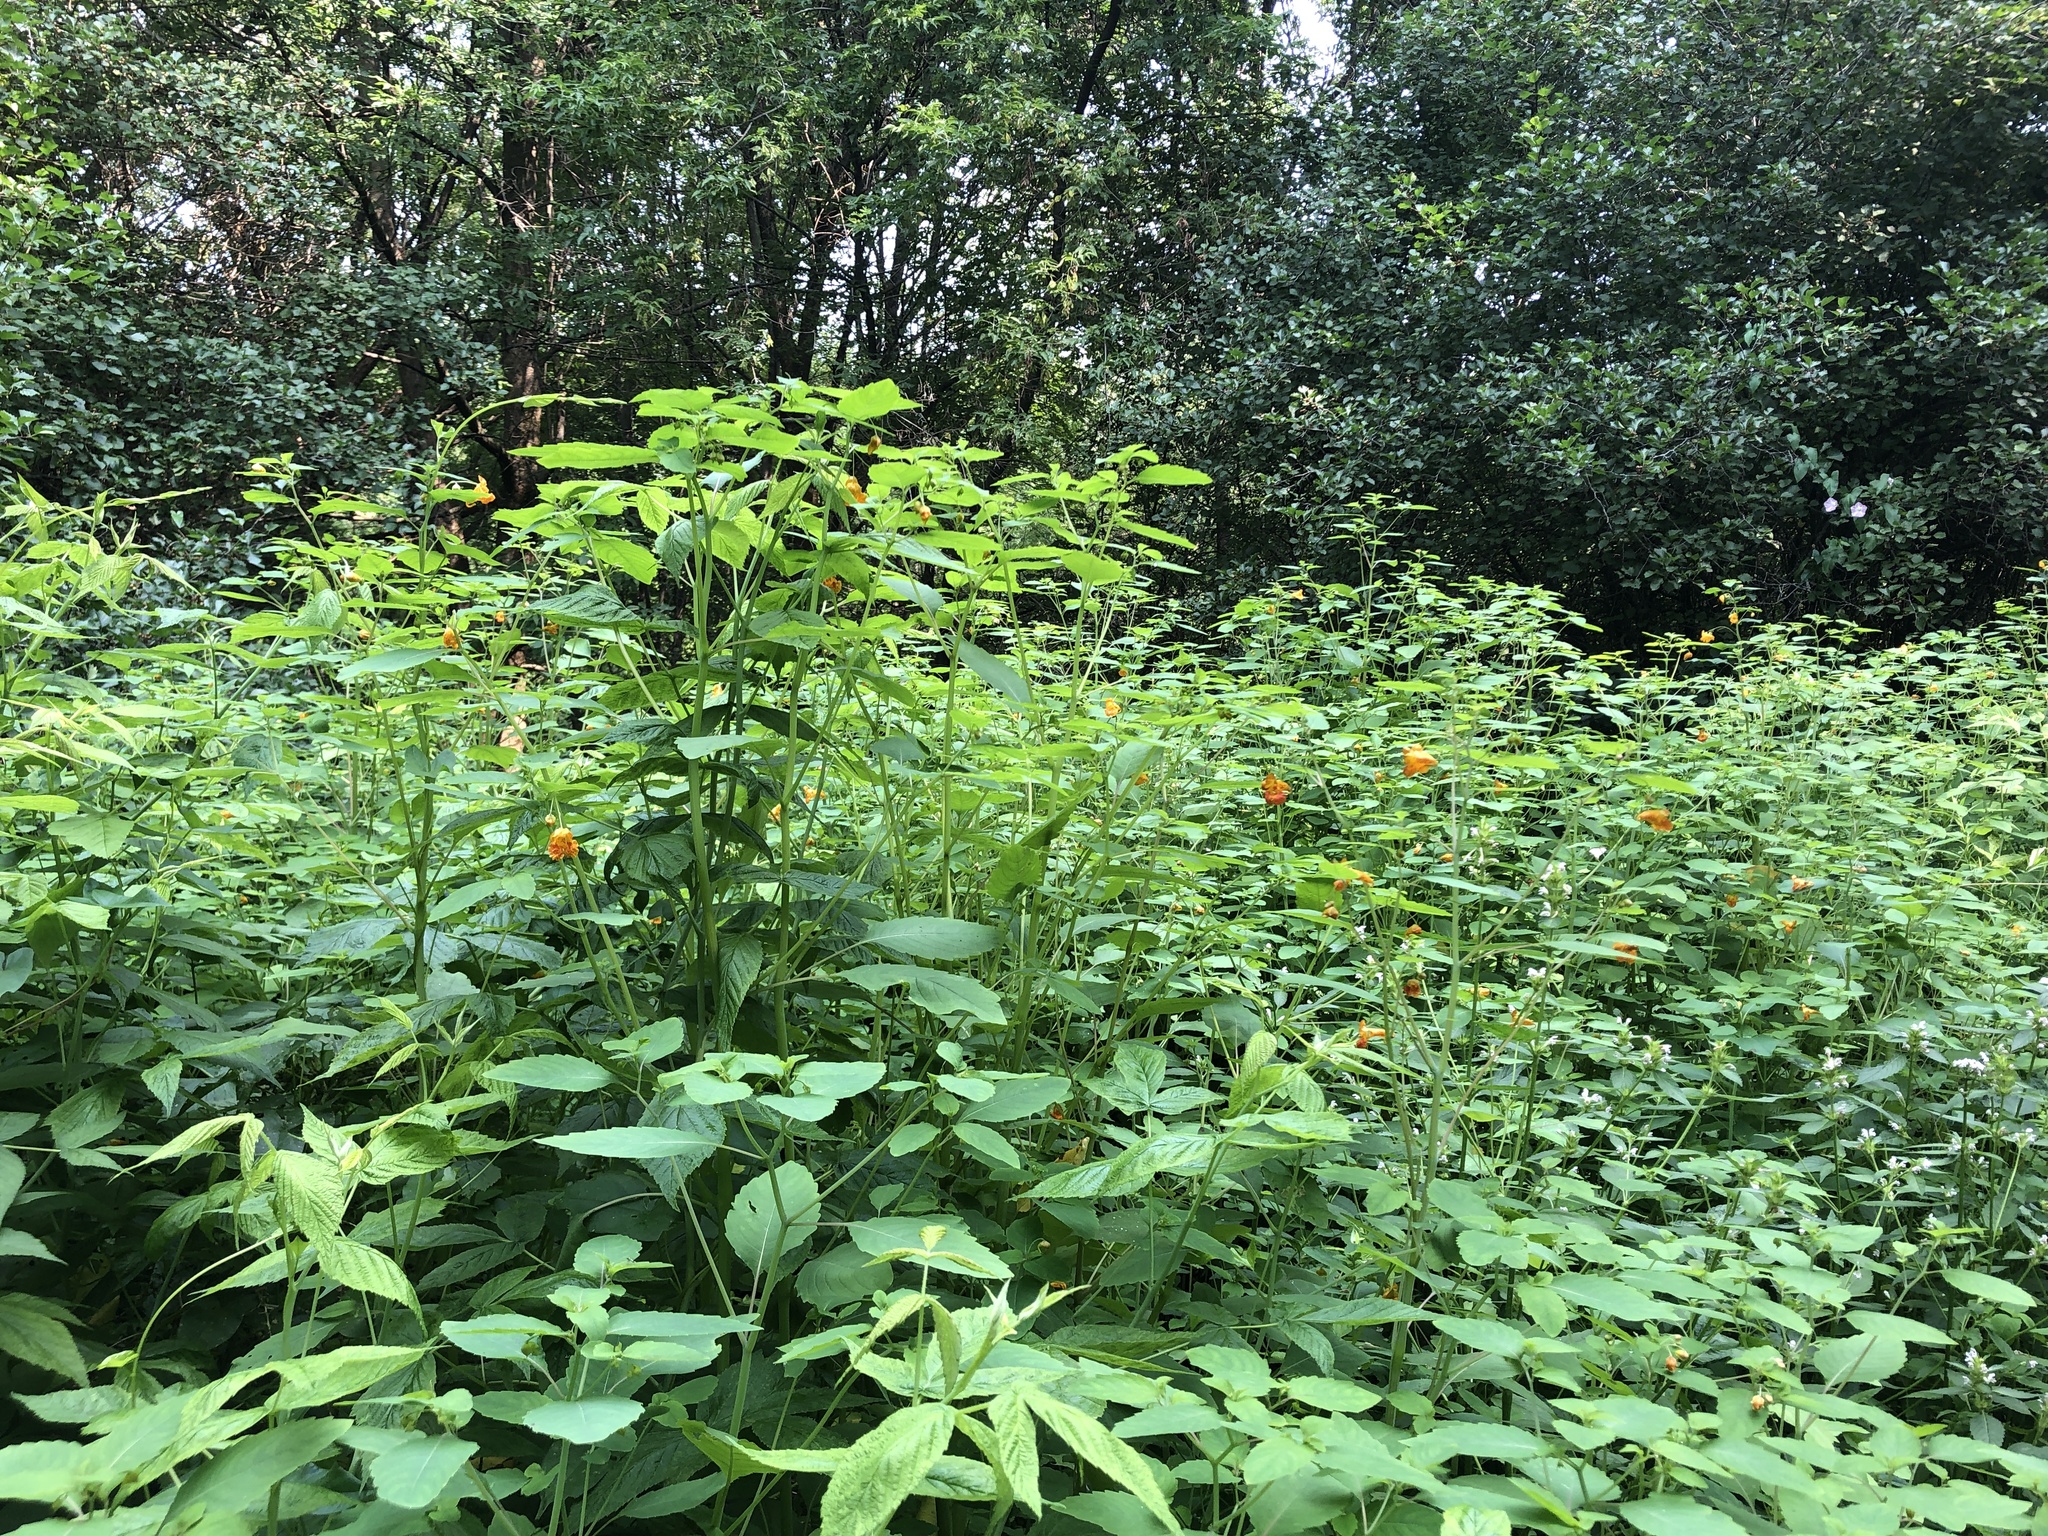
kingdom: Plantae
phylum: Tracheophyta
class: Magnoliopsida
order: Ericales
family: Balsaminaceae
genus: Impatiens
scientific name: Impatiens capensis
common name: Orange balsam
